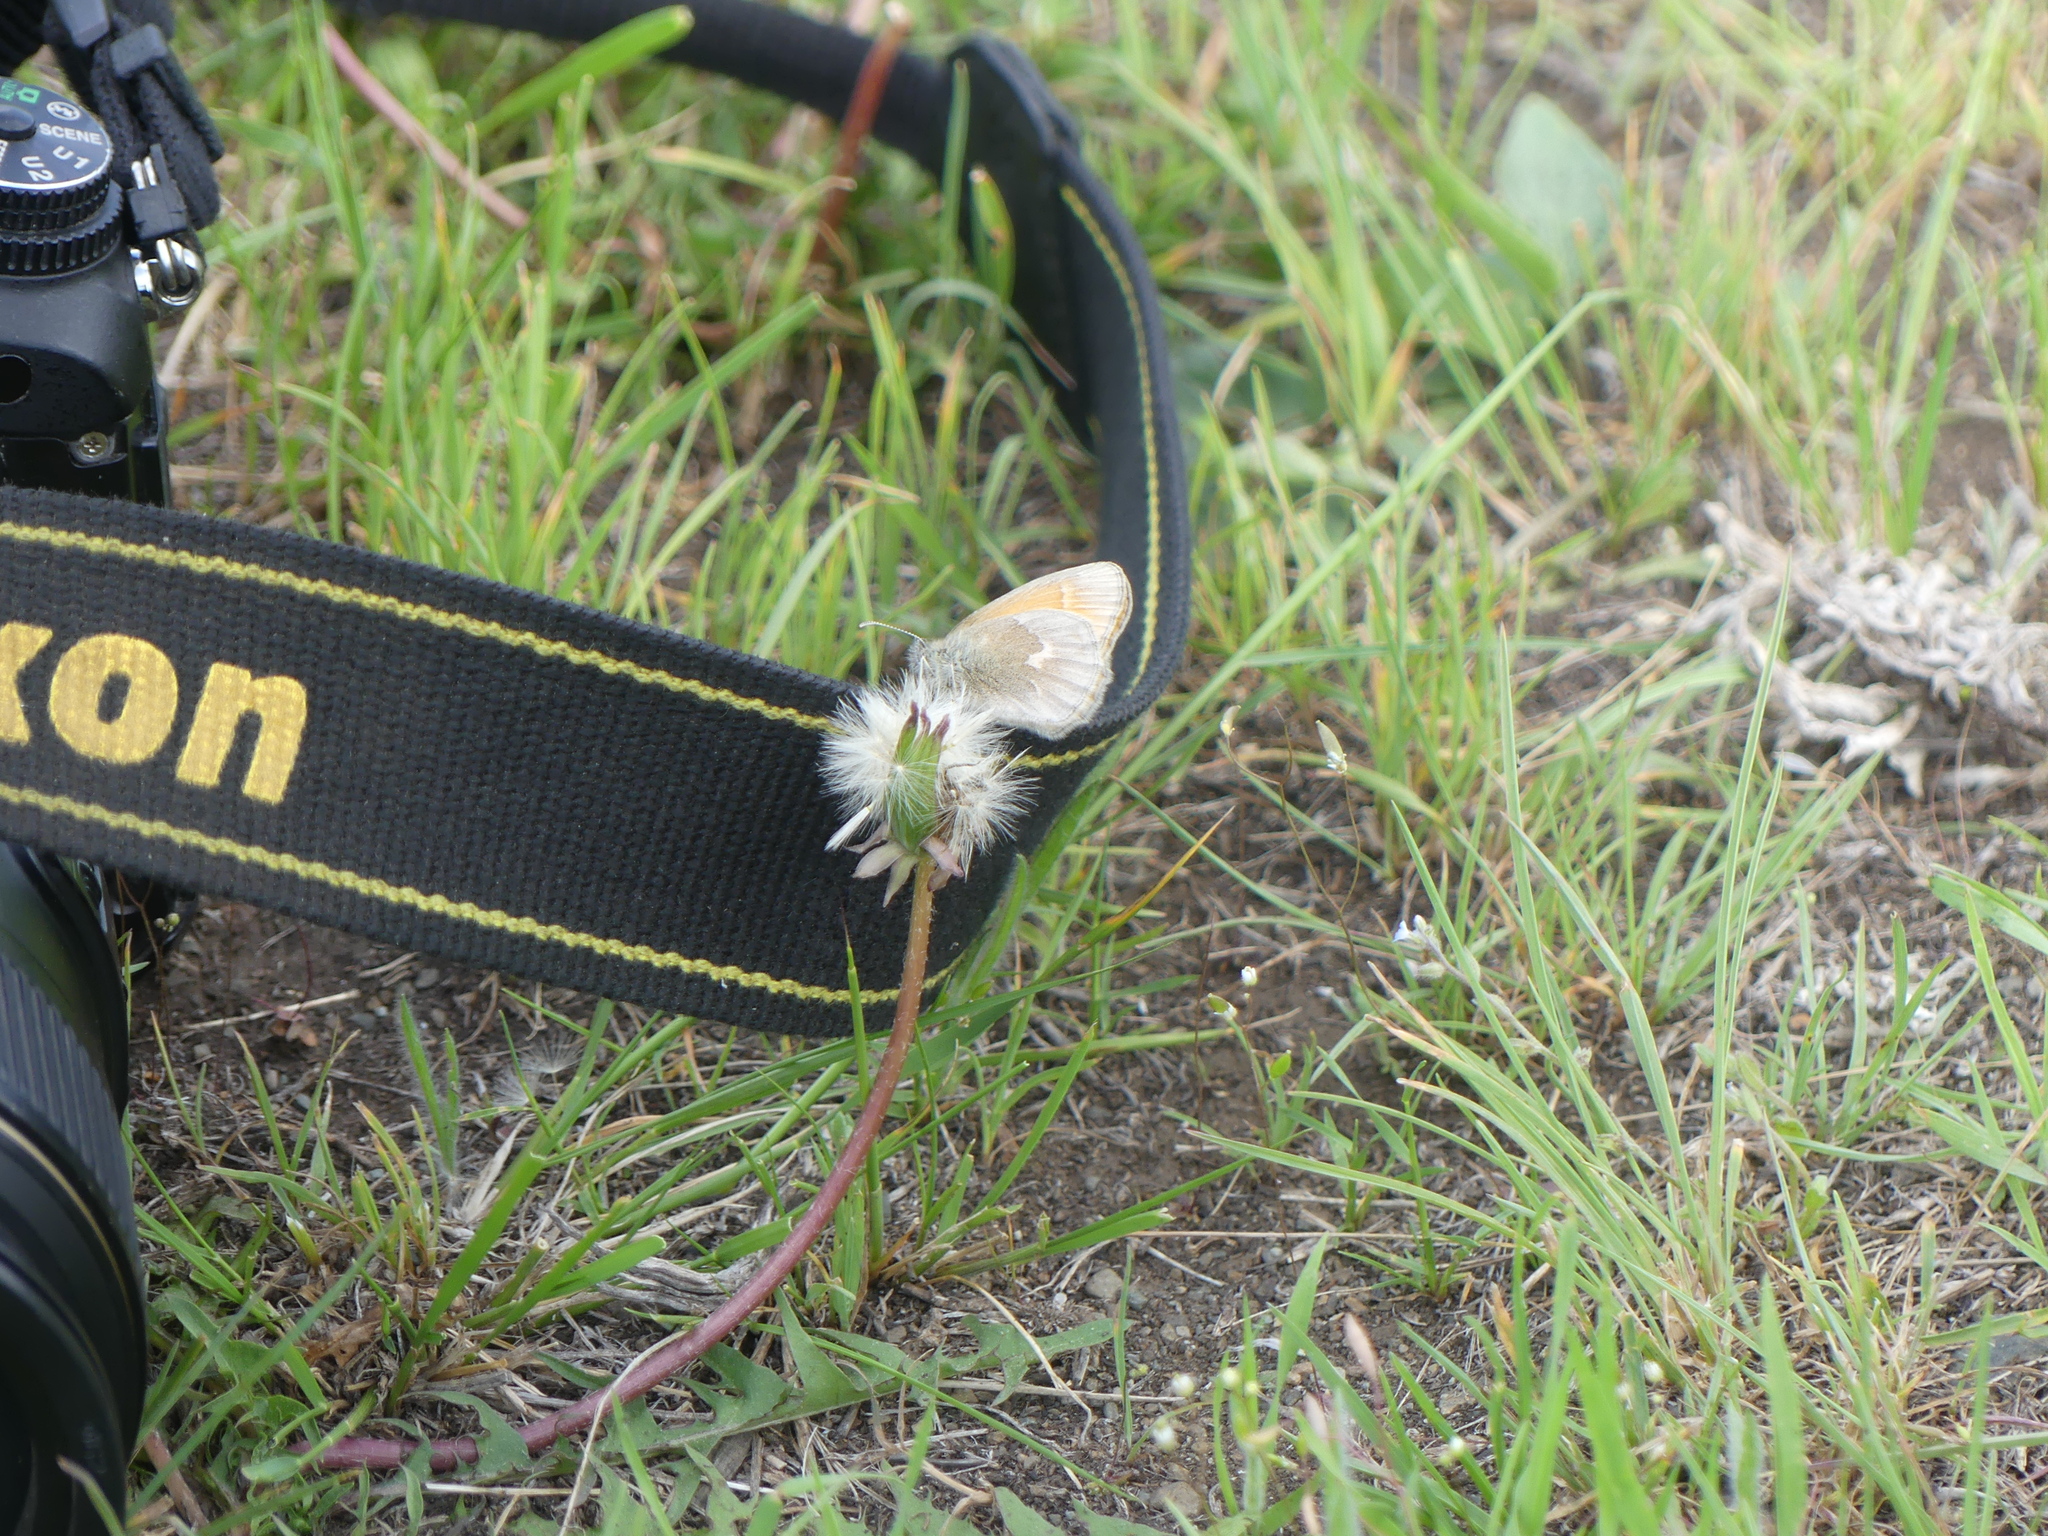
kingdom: Animalia
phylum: Arthropoda
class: Insecta
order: Lepidoptera
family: Nymphalidae
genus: Coenonympha
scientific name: Coenonympha california
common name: Common ringlet
